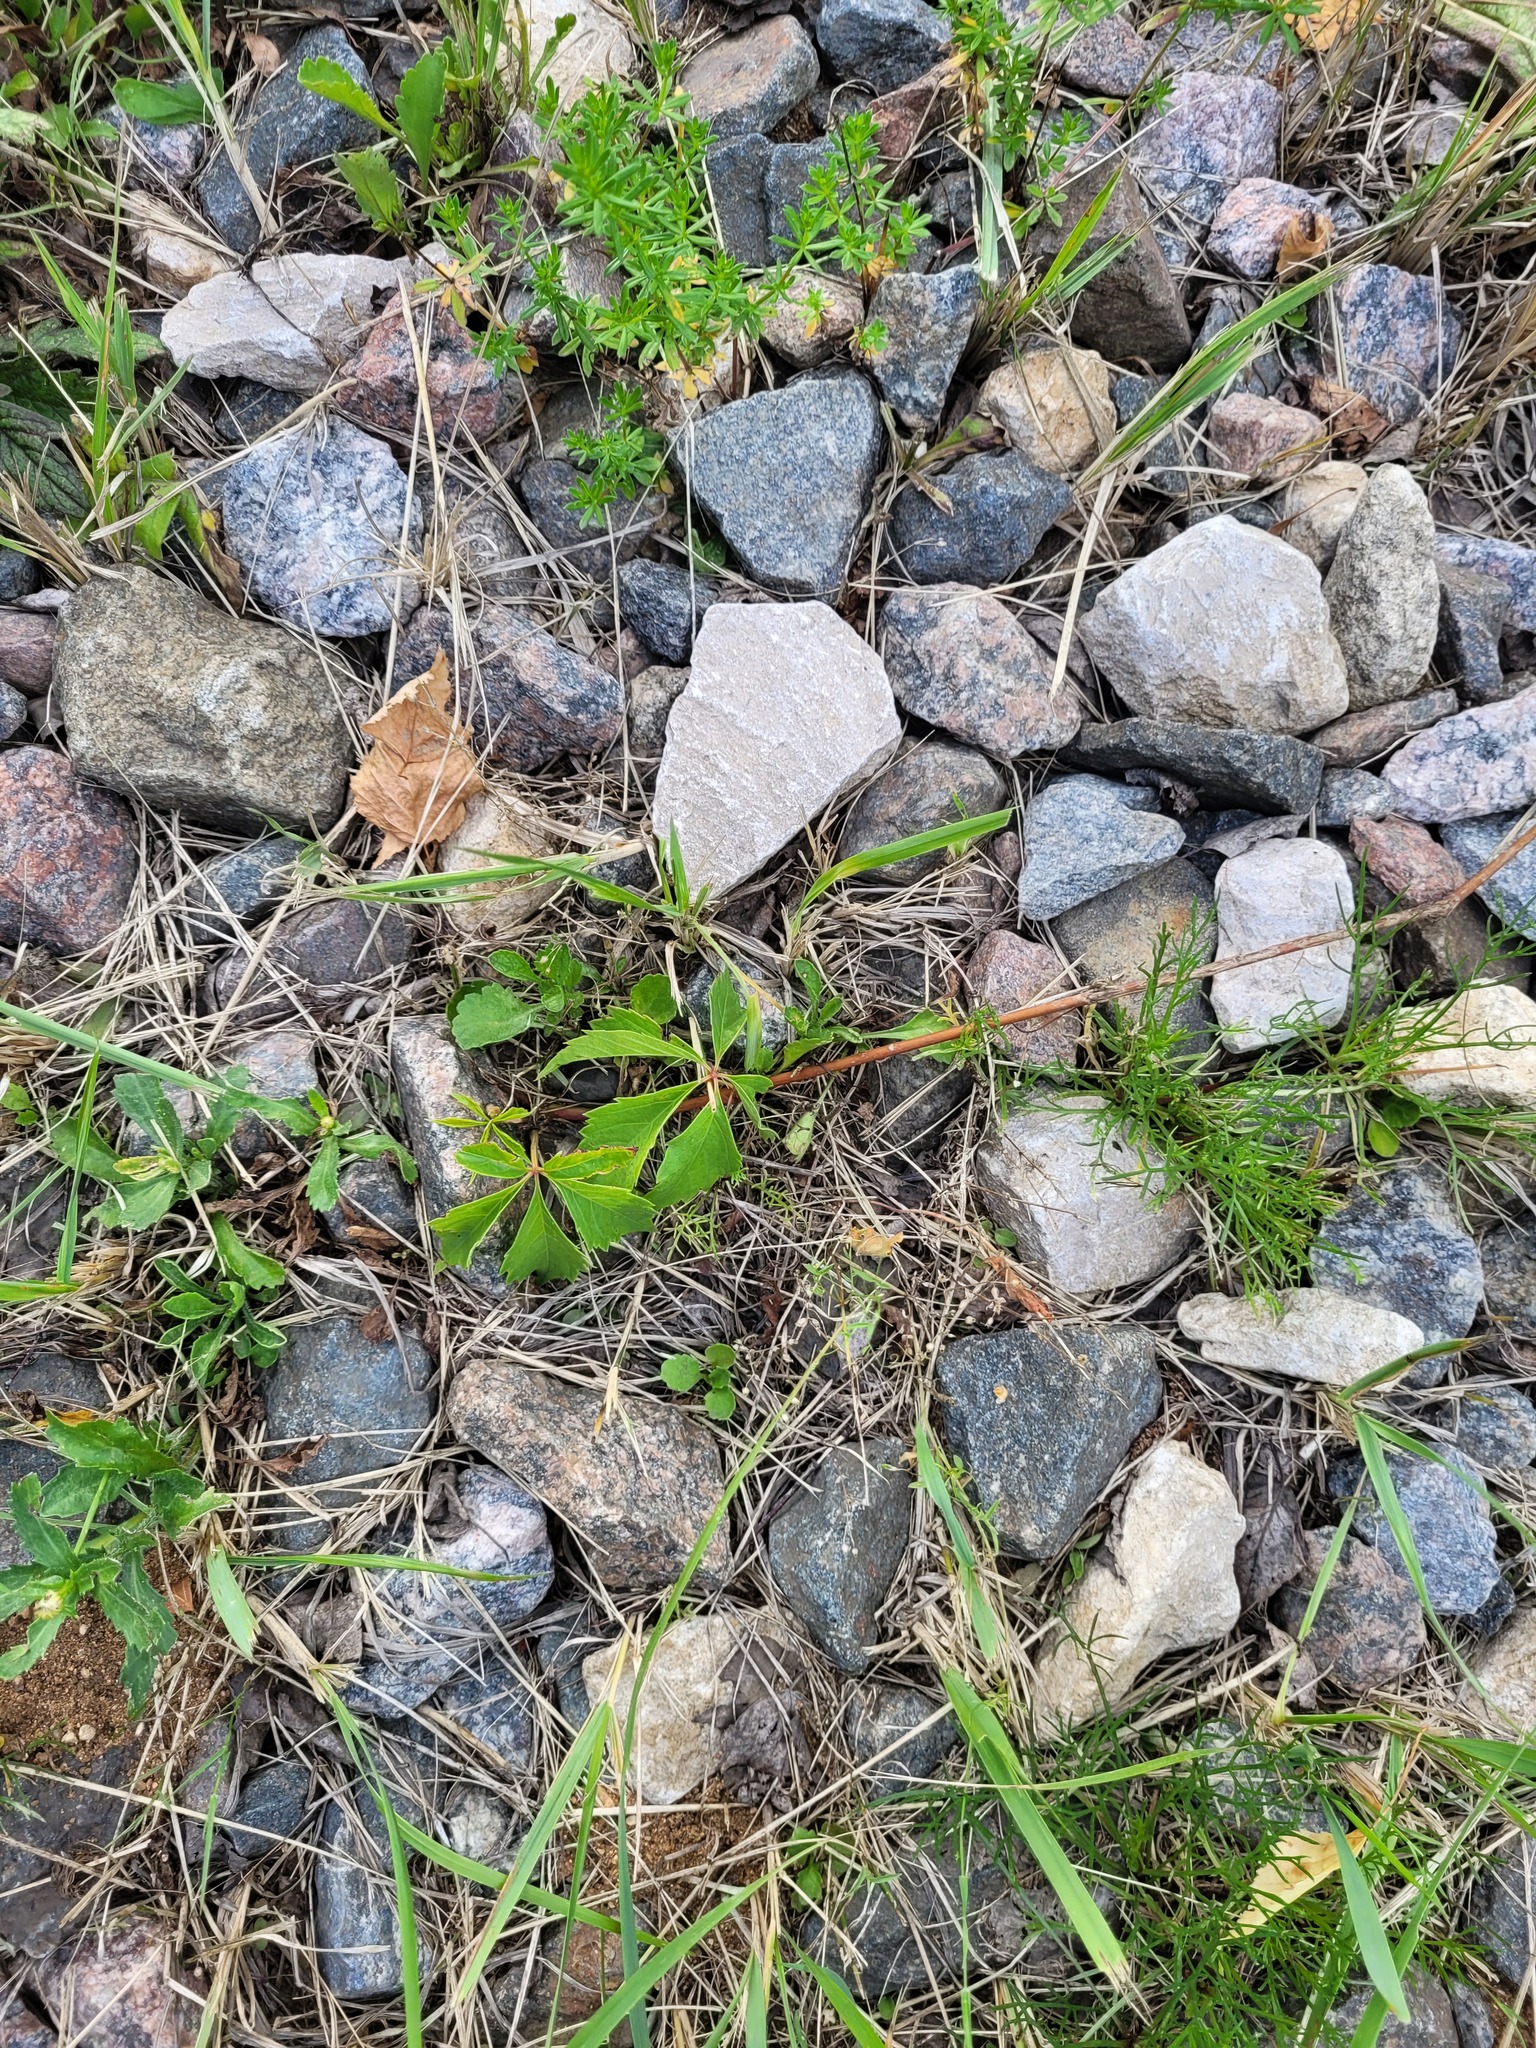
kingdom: Plantae
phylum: Tracheophyta
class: Magnoliopsida
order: Vitales
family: Vitaceae
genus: Parthenocissus
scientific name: Parthenocissus inserta
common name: False virginia-creeper
